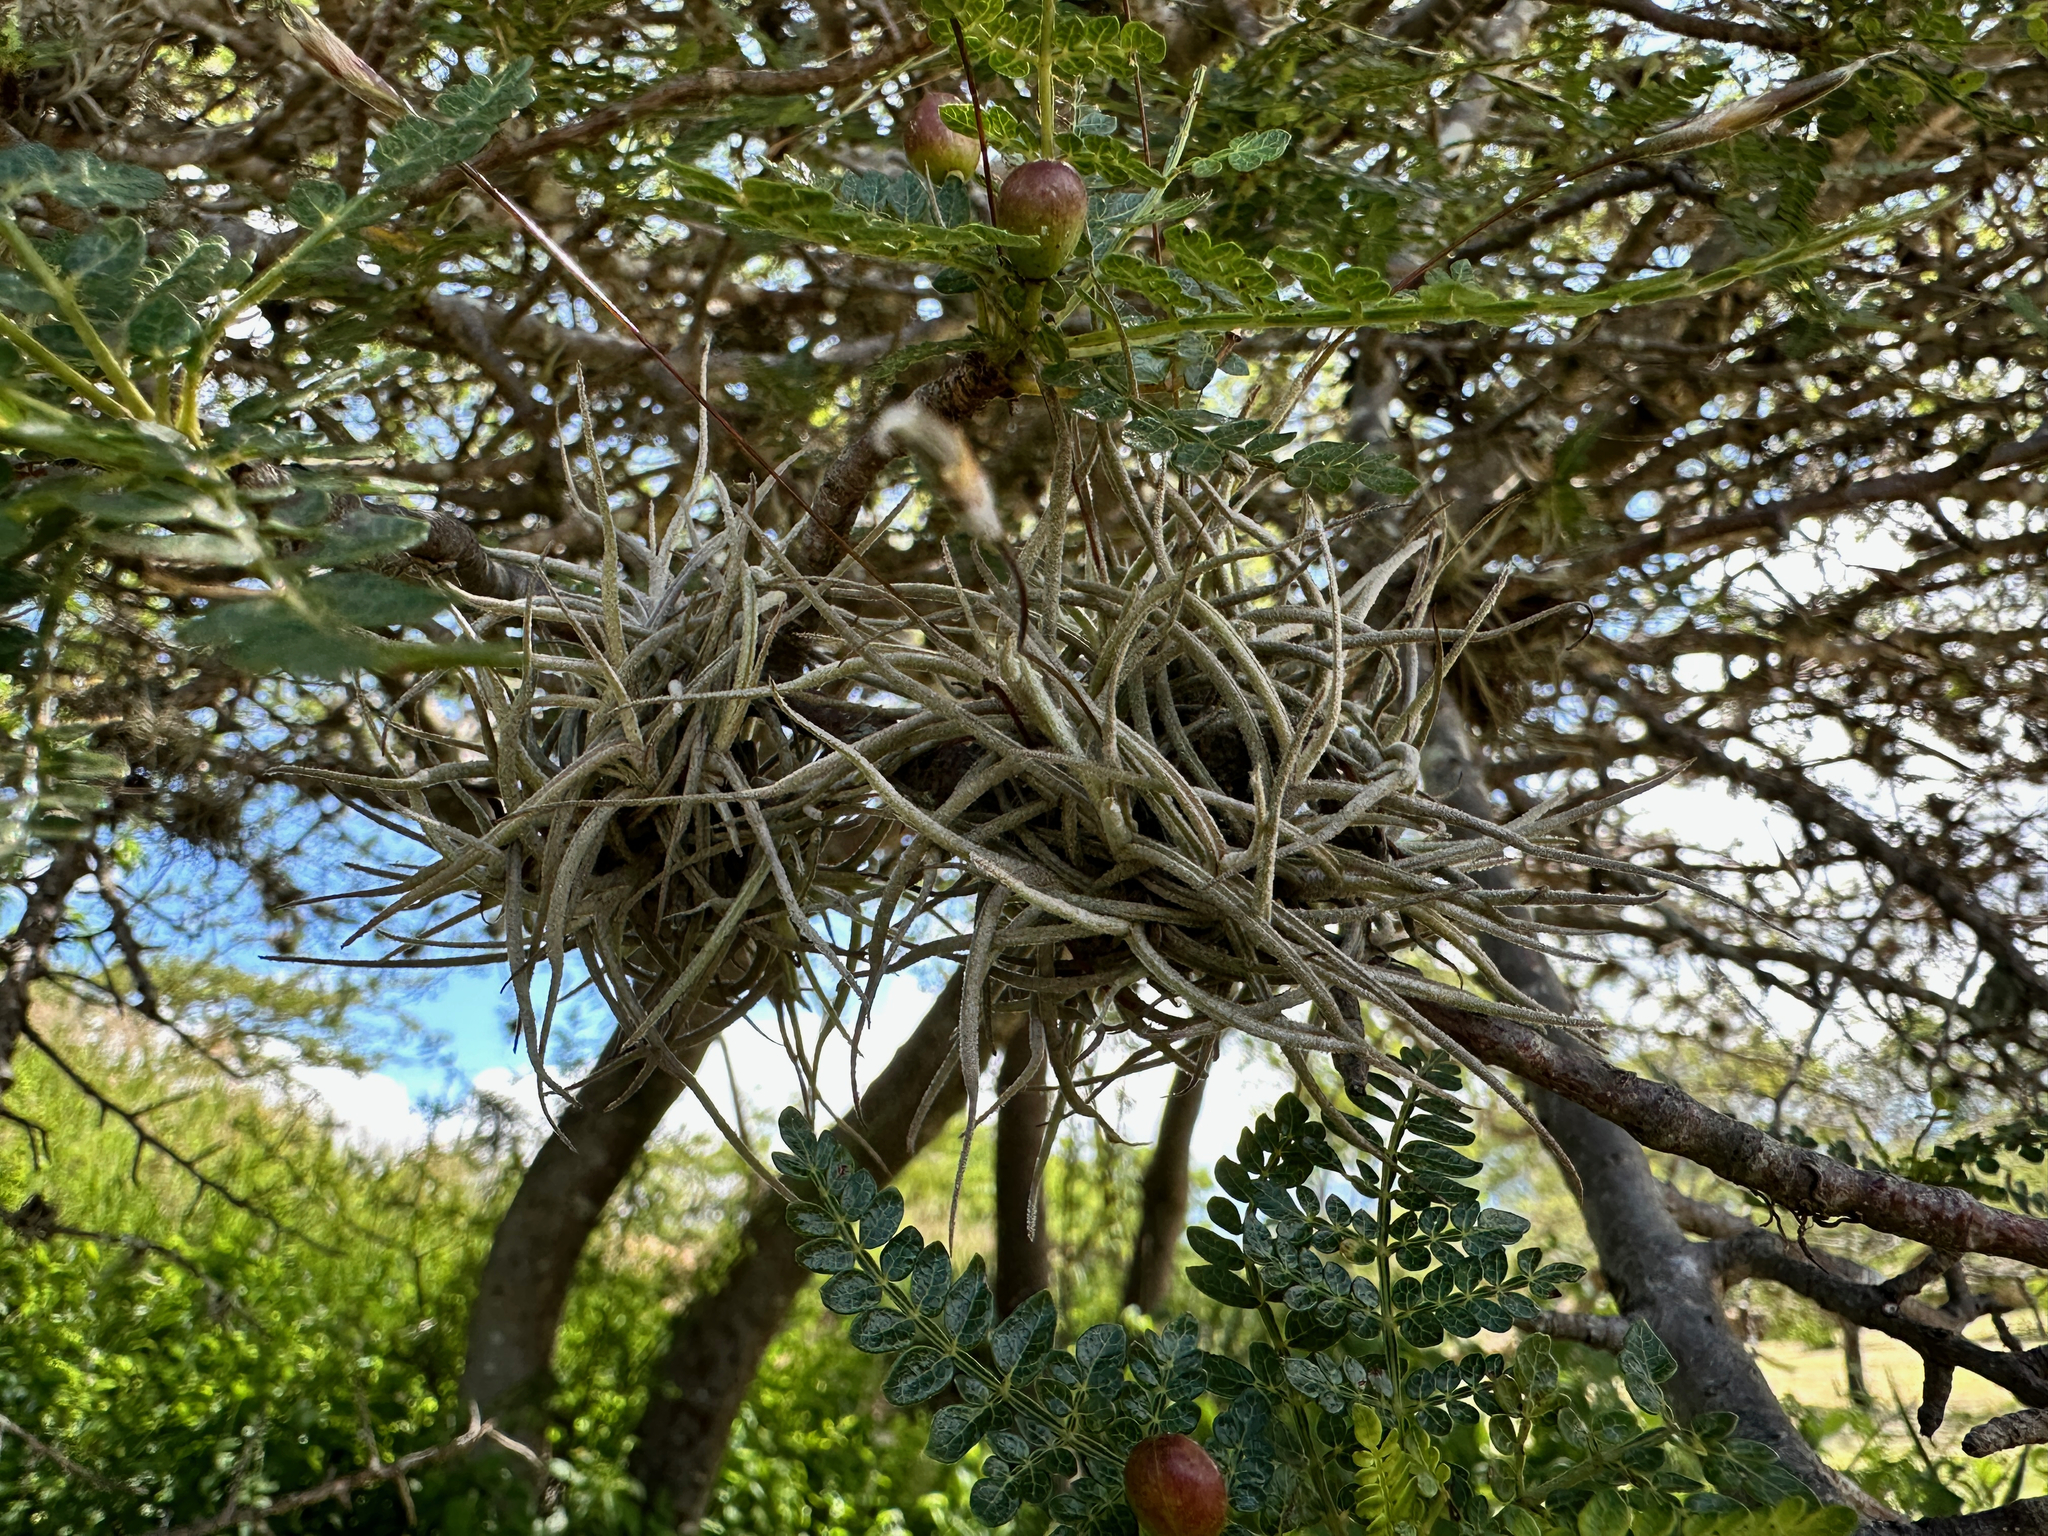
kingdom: Plantae
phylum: Tracheophyta
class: Liliopsida
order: Poales
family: Bromeliaceae
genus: Tillandsia
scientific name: Tillandsia recurvata
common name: Small ballmoss
